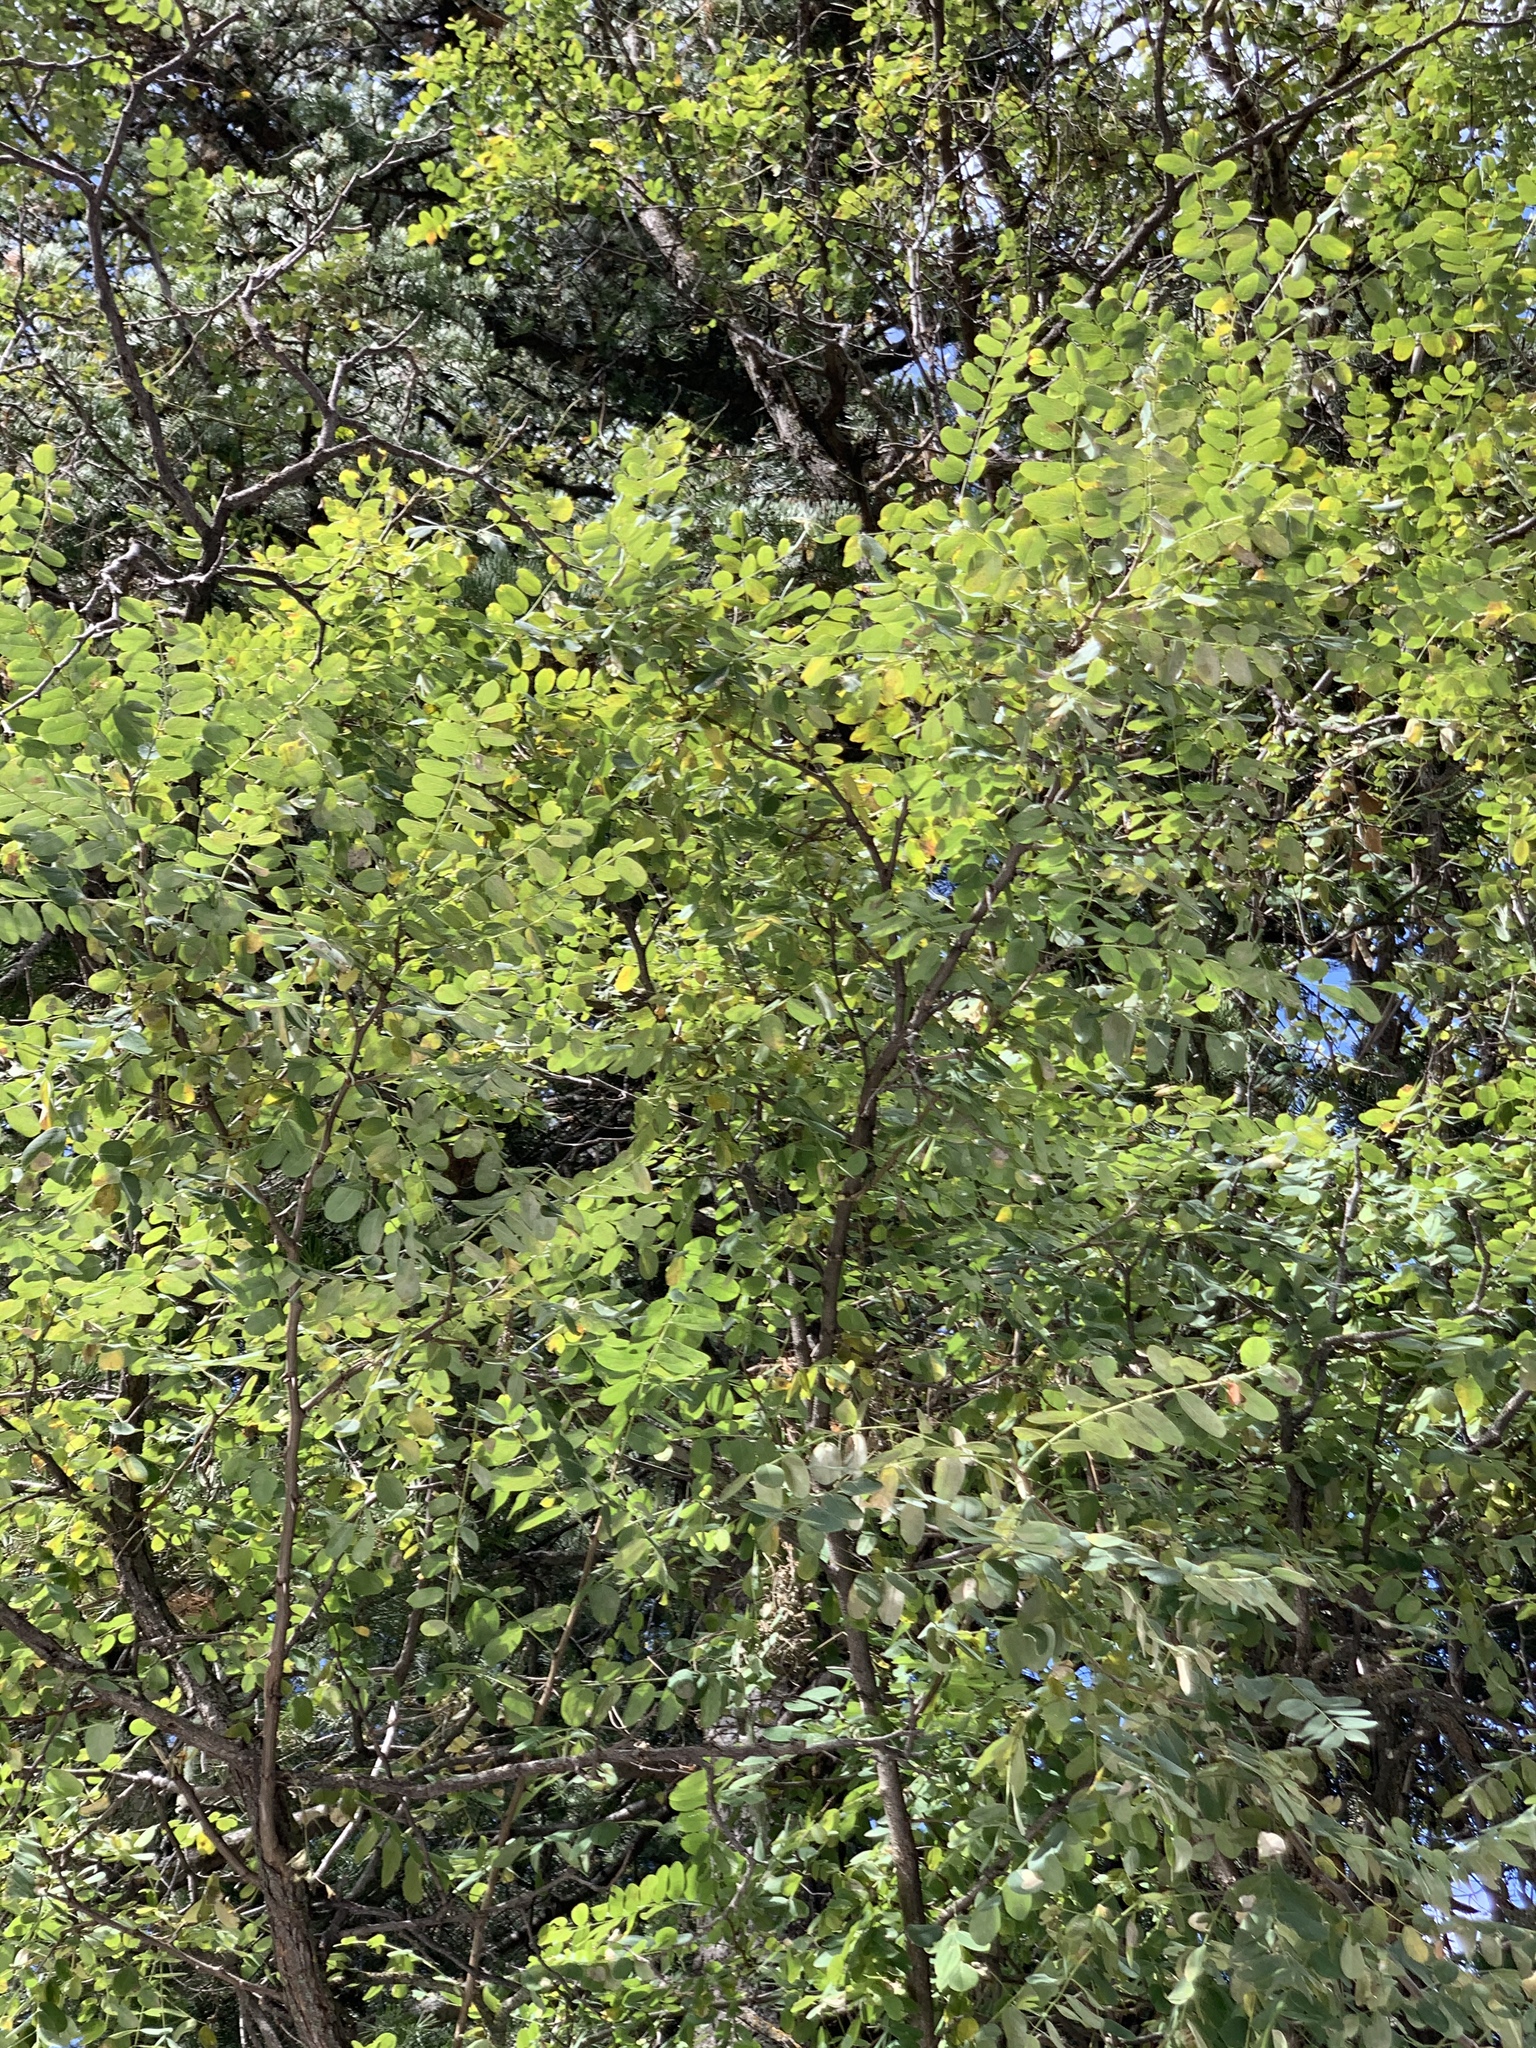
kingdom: Plantae
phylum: Tracheophyta
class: Magnoliopsida
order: Fabales
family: Fabaceae
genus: Robinia
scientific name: Robinia neomexicana
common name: New mexico locust
